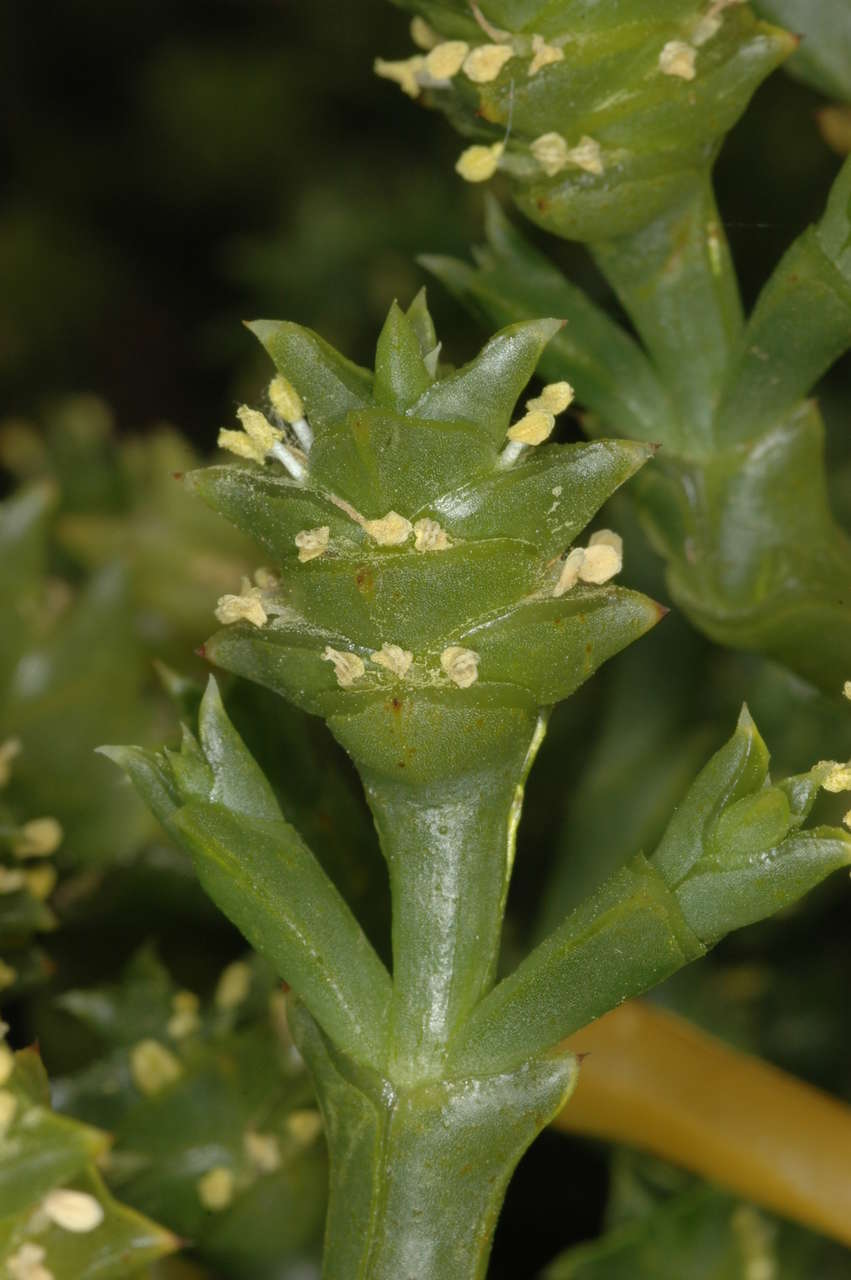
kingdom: Plantae
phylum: Tracheophyta
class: Magnoliopsida
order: Caryophyllales
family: Amaranthaceae
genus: Tecticornia
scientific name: Tecticornia triandra
